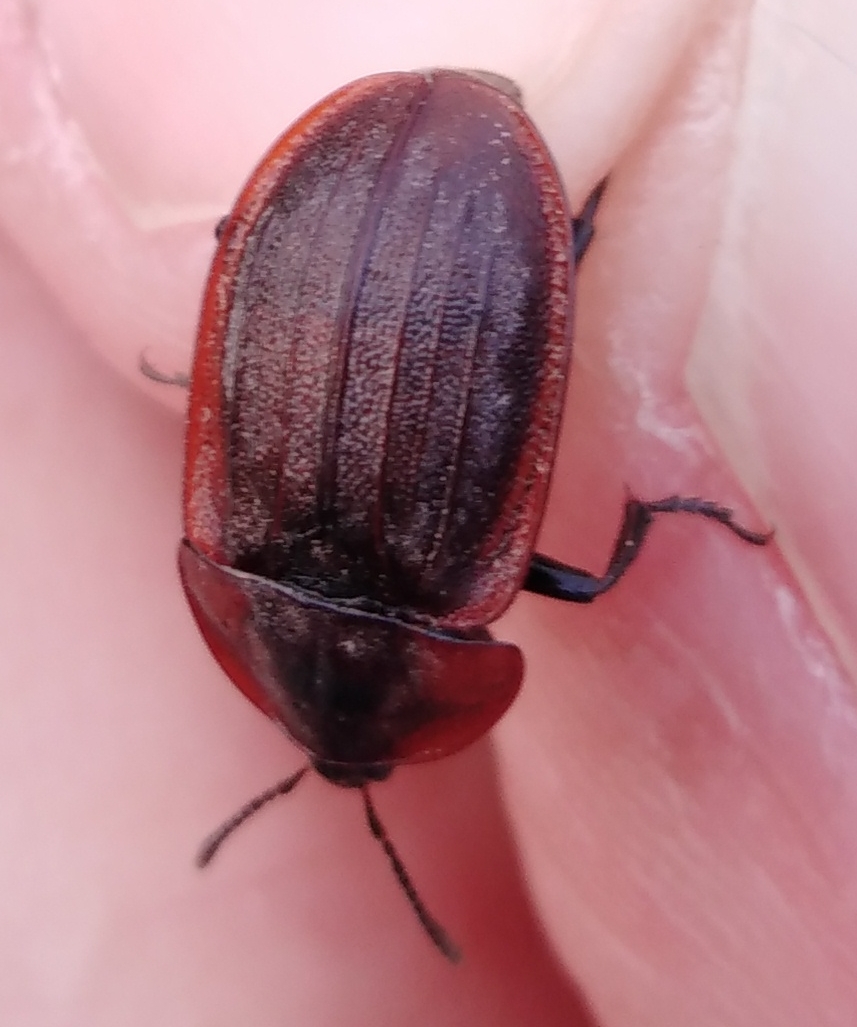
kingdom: Animalia
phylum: Arthropoda
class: Insecta
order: Coleoptera
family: Staphylinidae
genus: Silpha
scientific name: Silpha atrata
